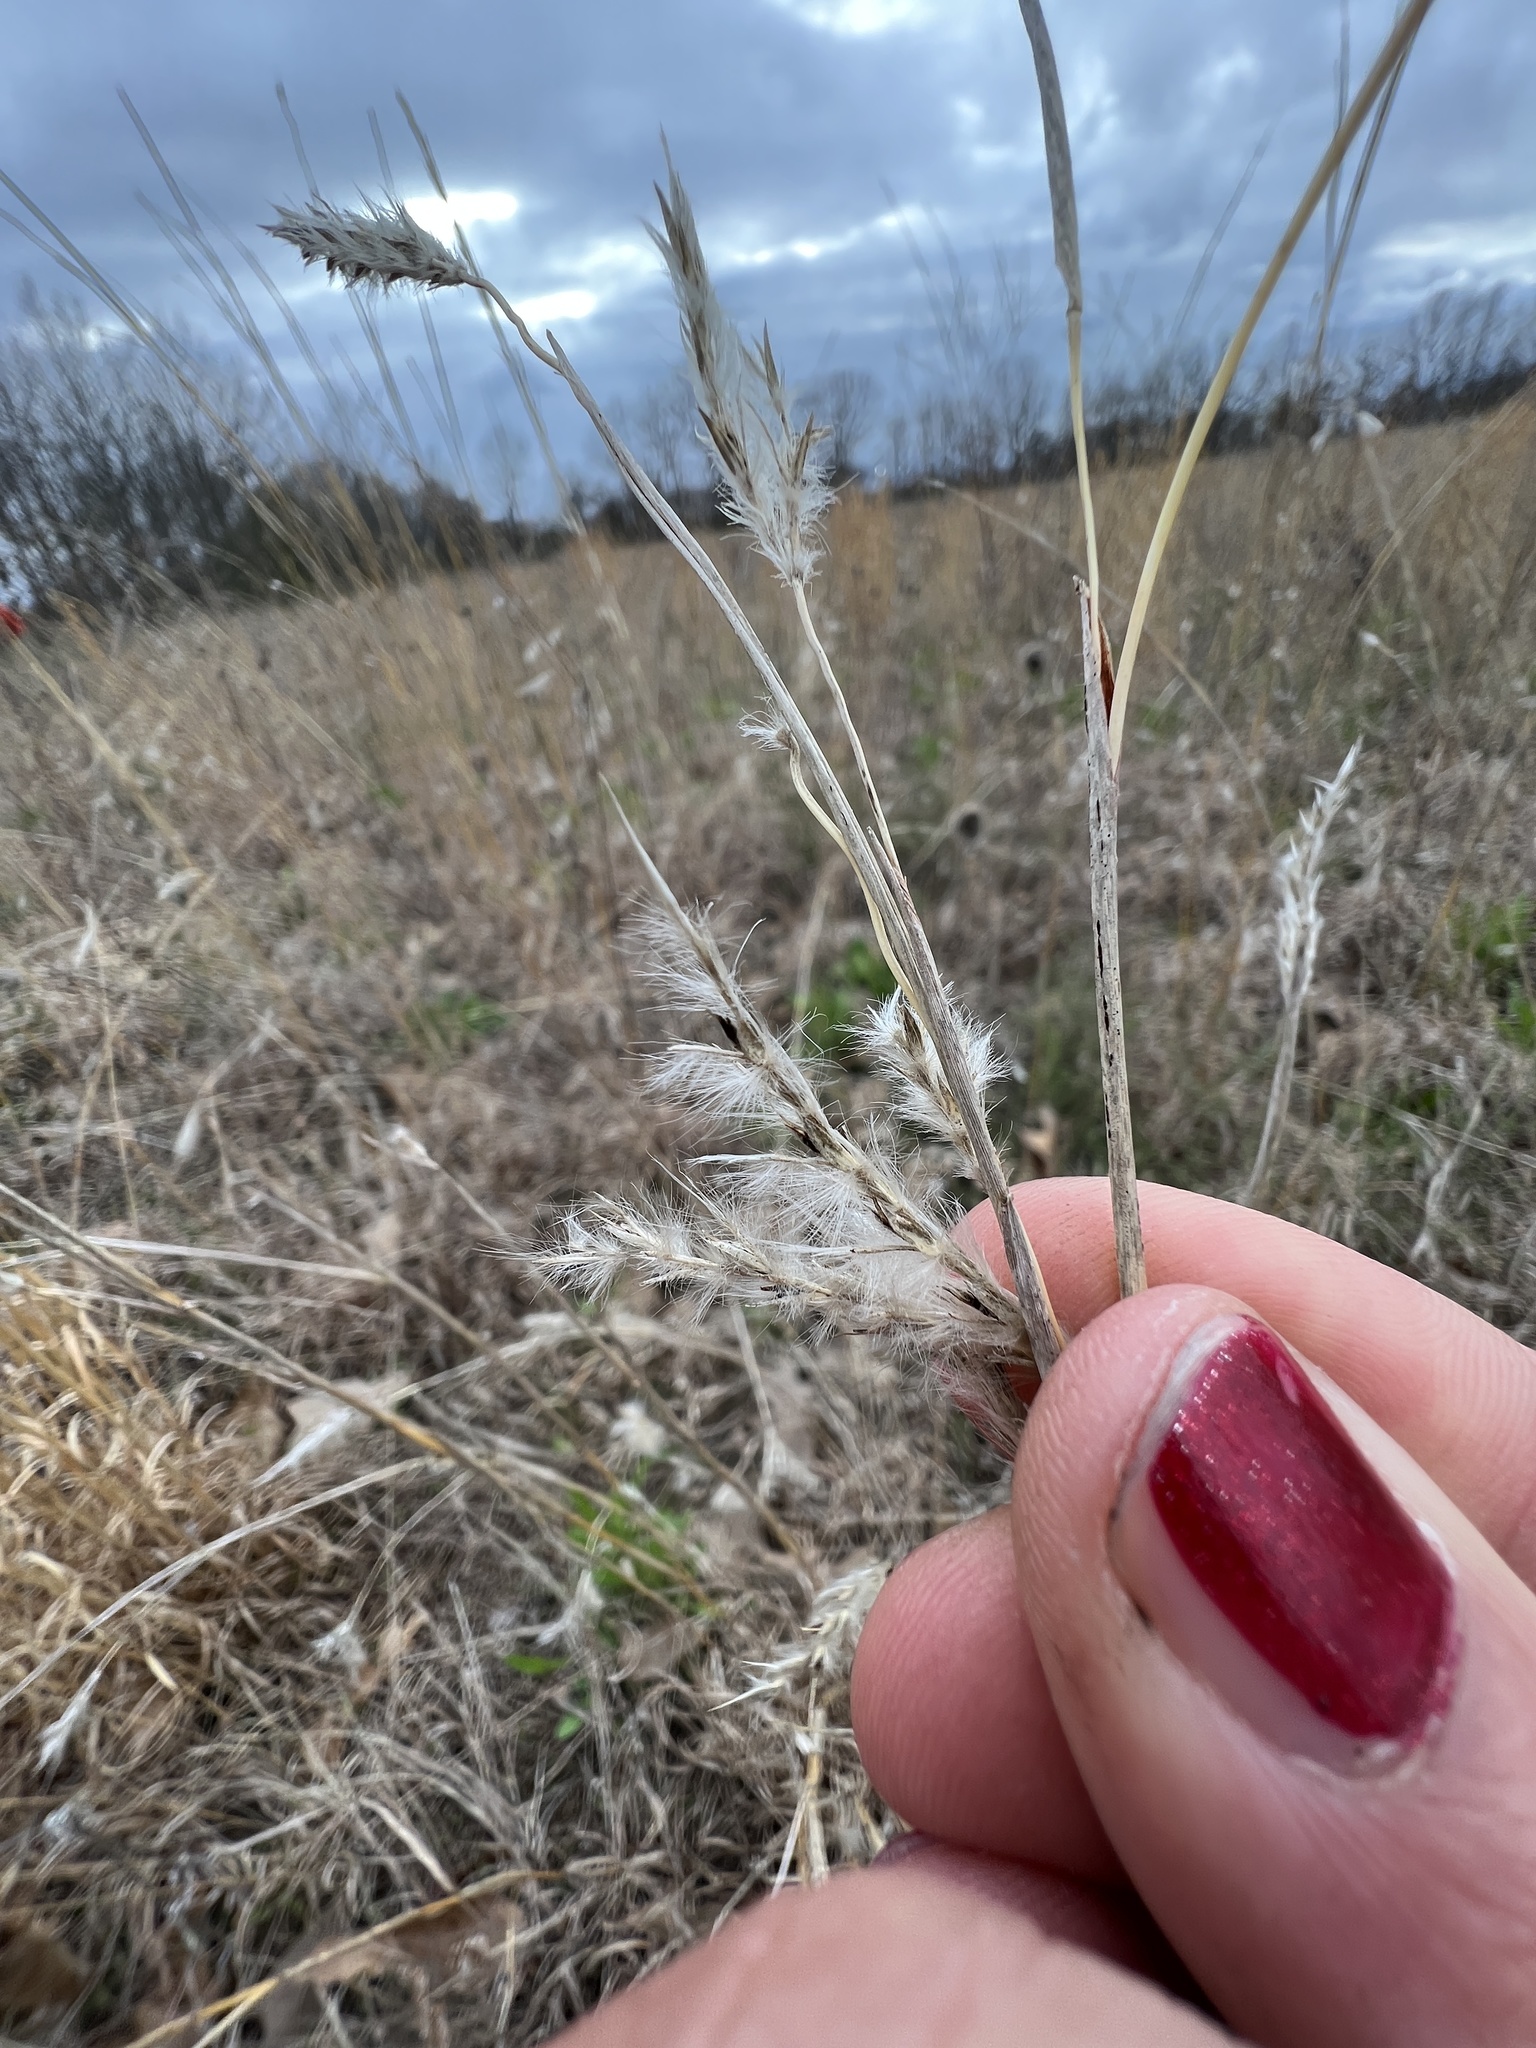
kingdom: Plantae
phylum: Tracheophyta
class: Liliopsida
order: Poales
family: Poaceae
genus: Andropogon
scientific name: Andropogon ternarius
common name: Split bluestem
